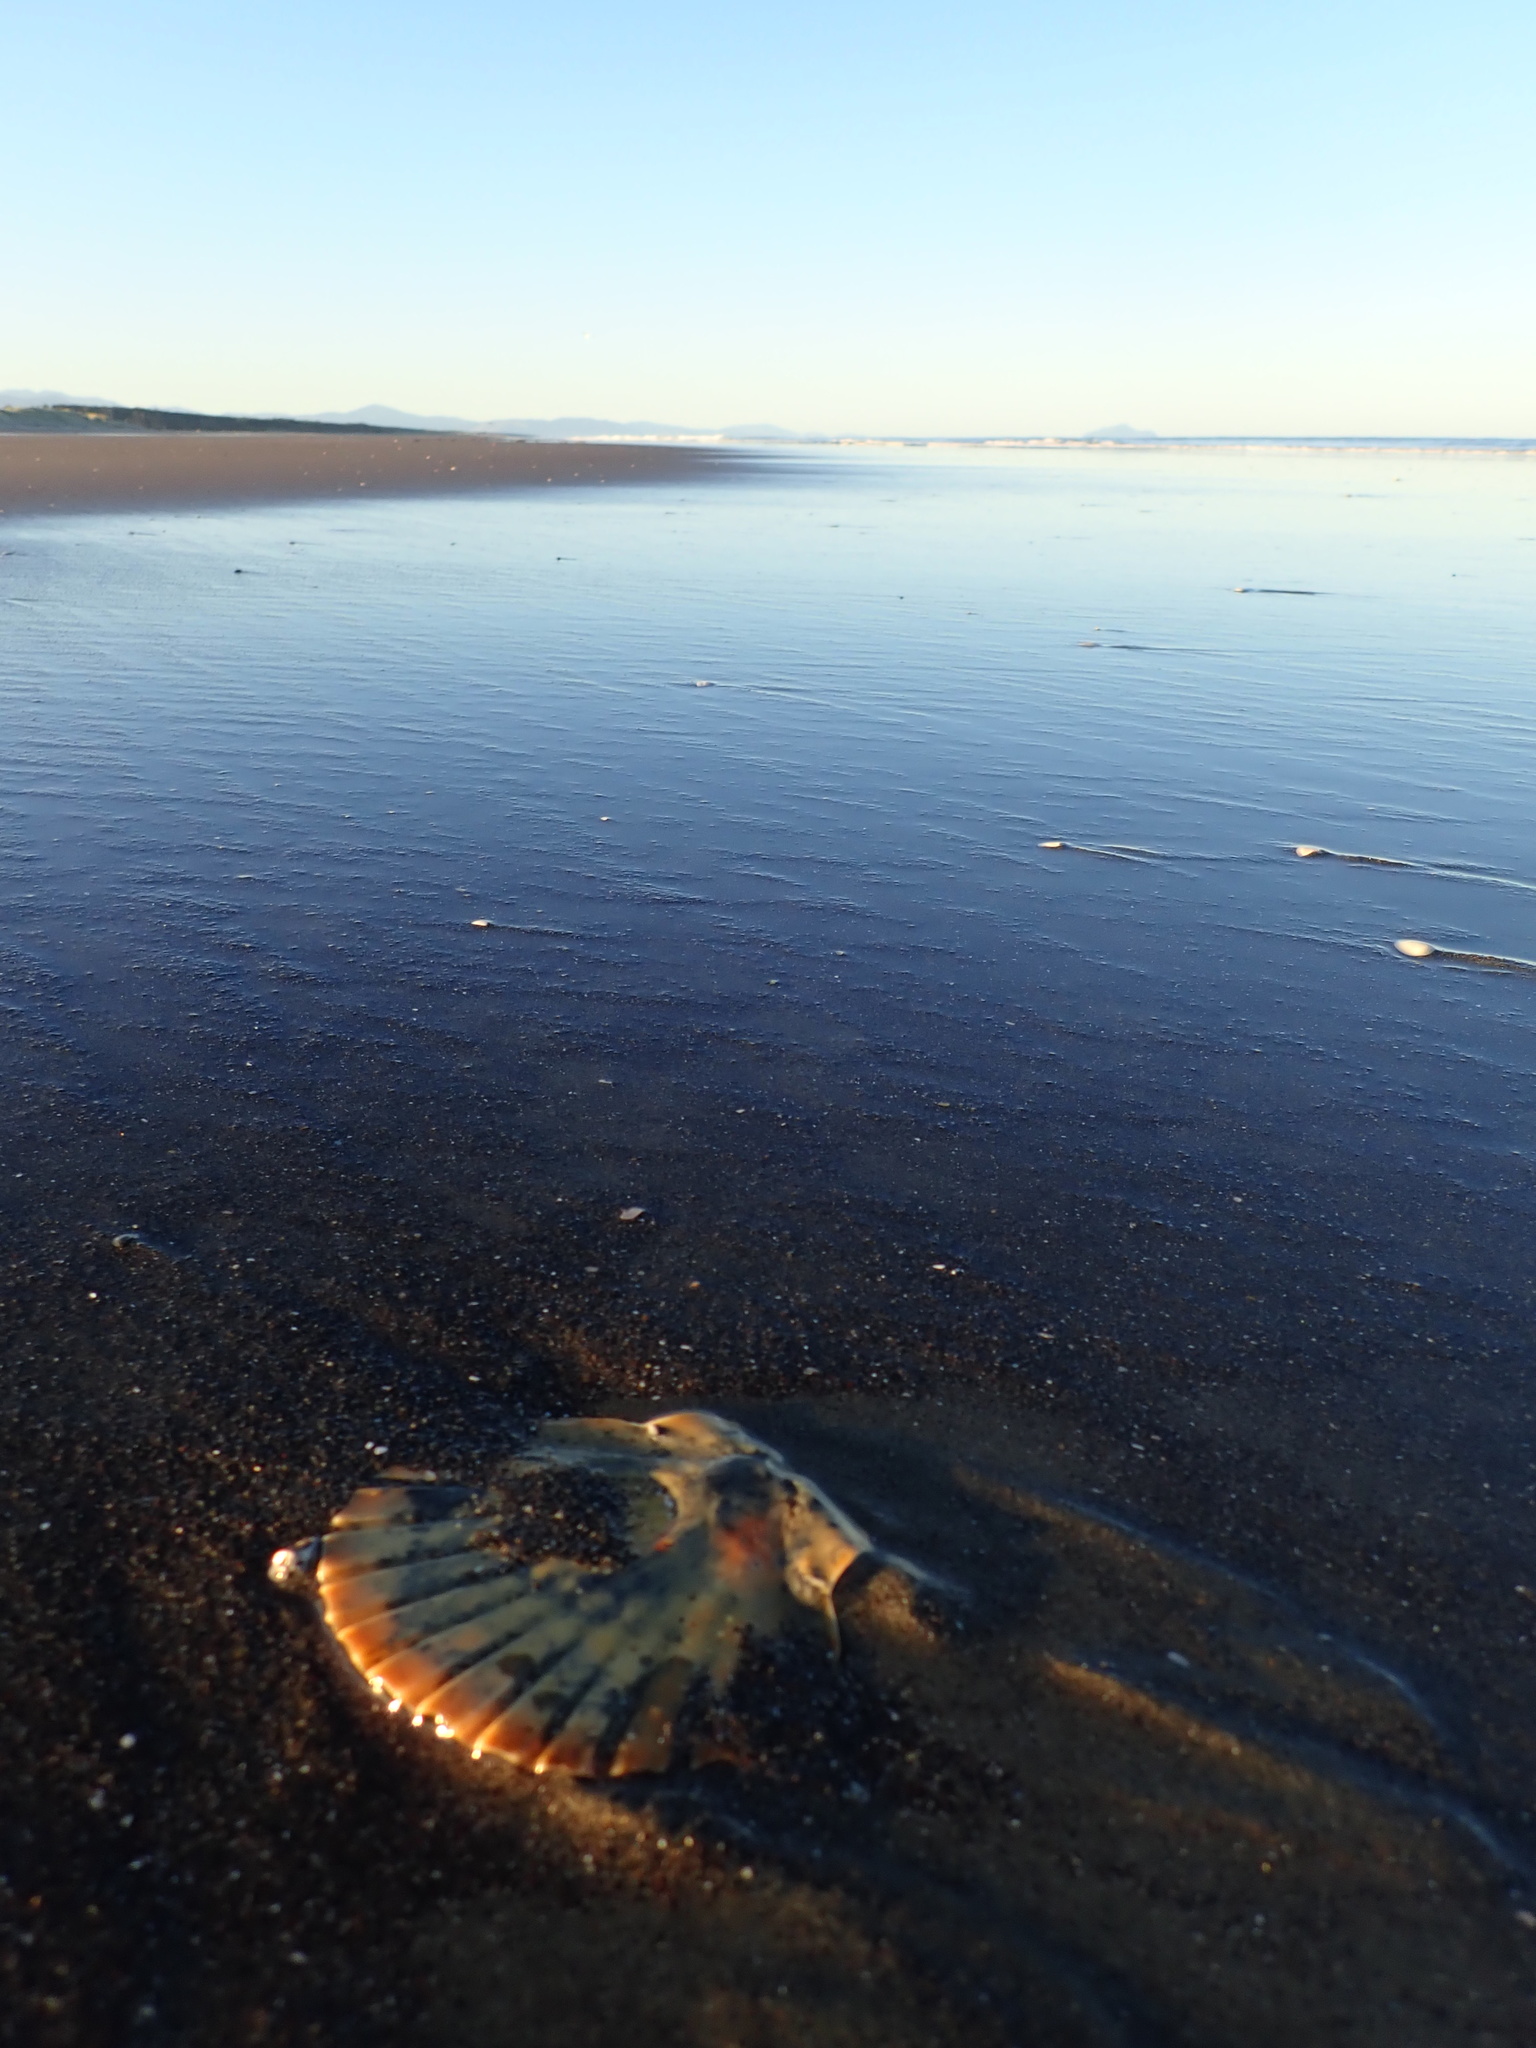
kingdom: Animalia
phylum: Mollusca
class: Bivalvia
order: Pectinida
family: Pectinidae
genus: Pecten
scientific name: Pecten novaezelandiae
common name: New zealand scallop
